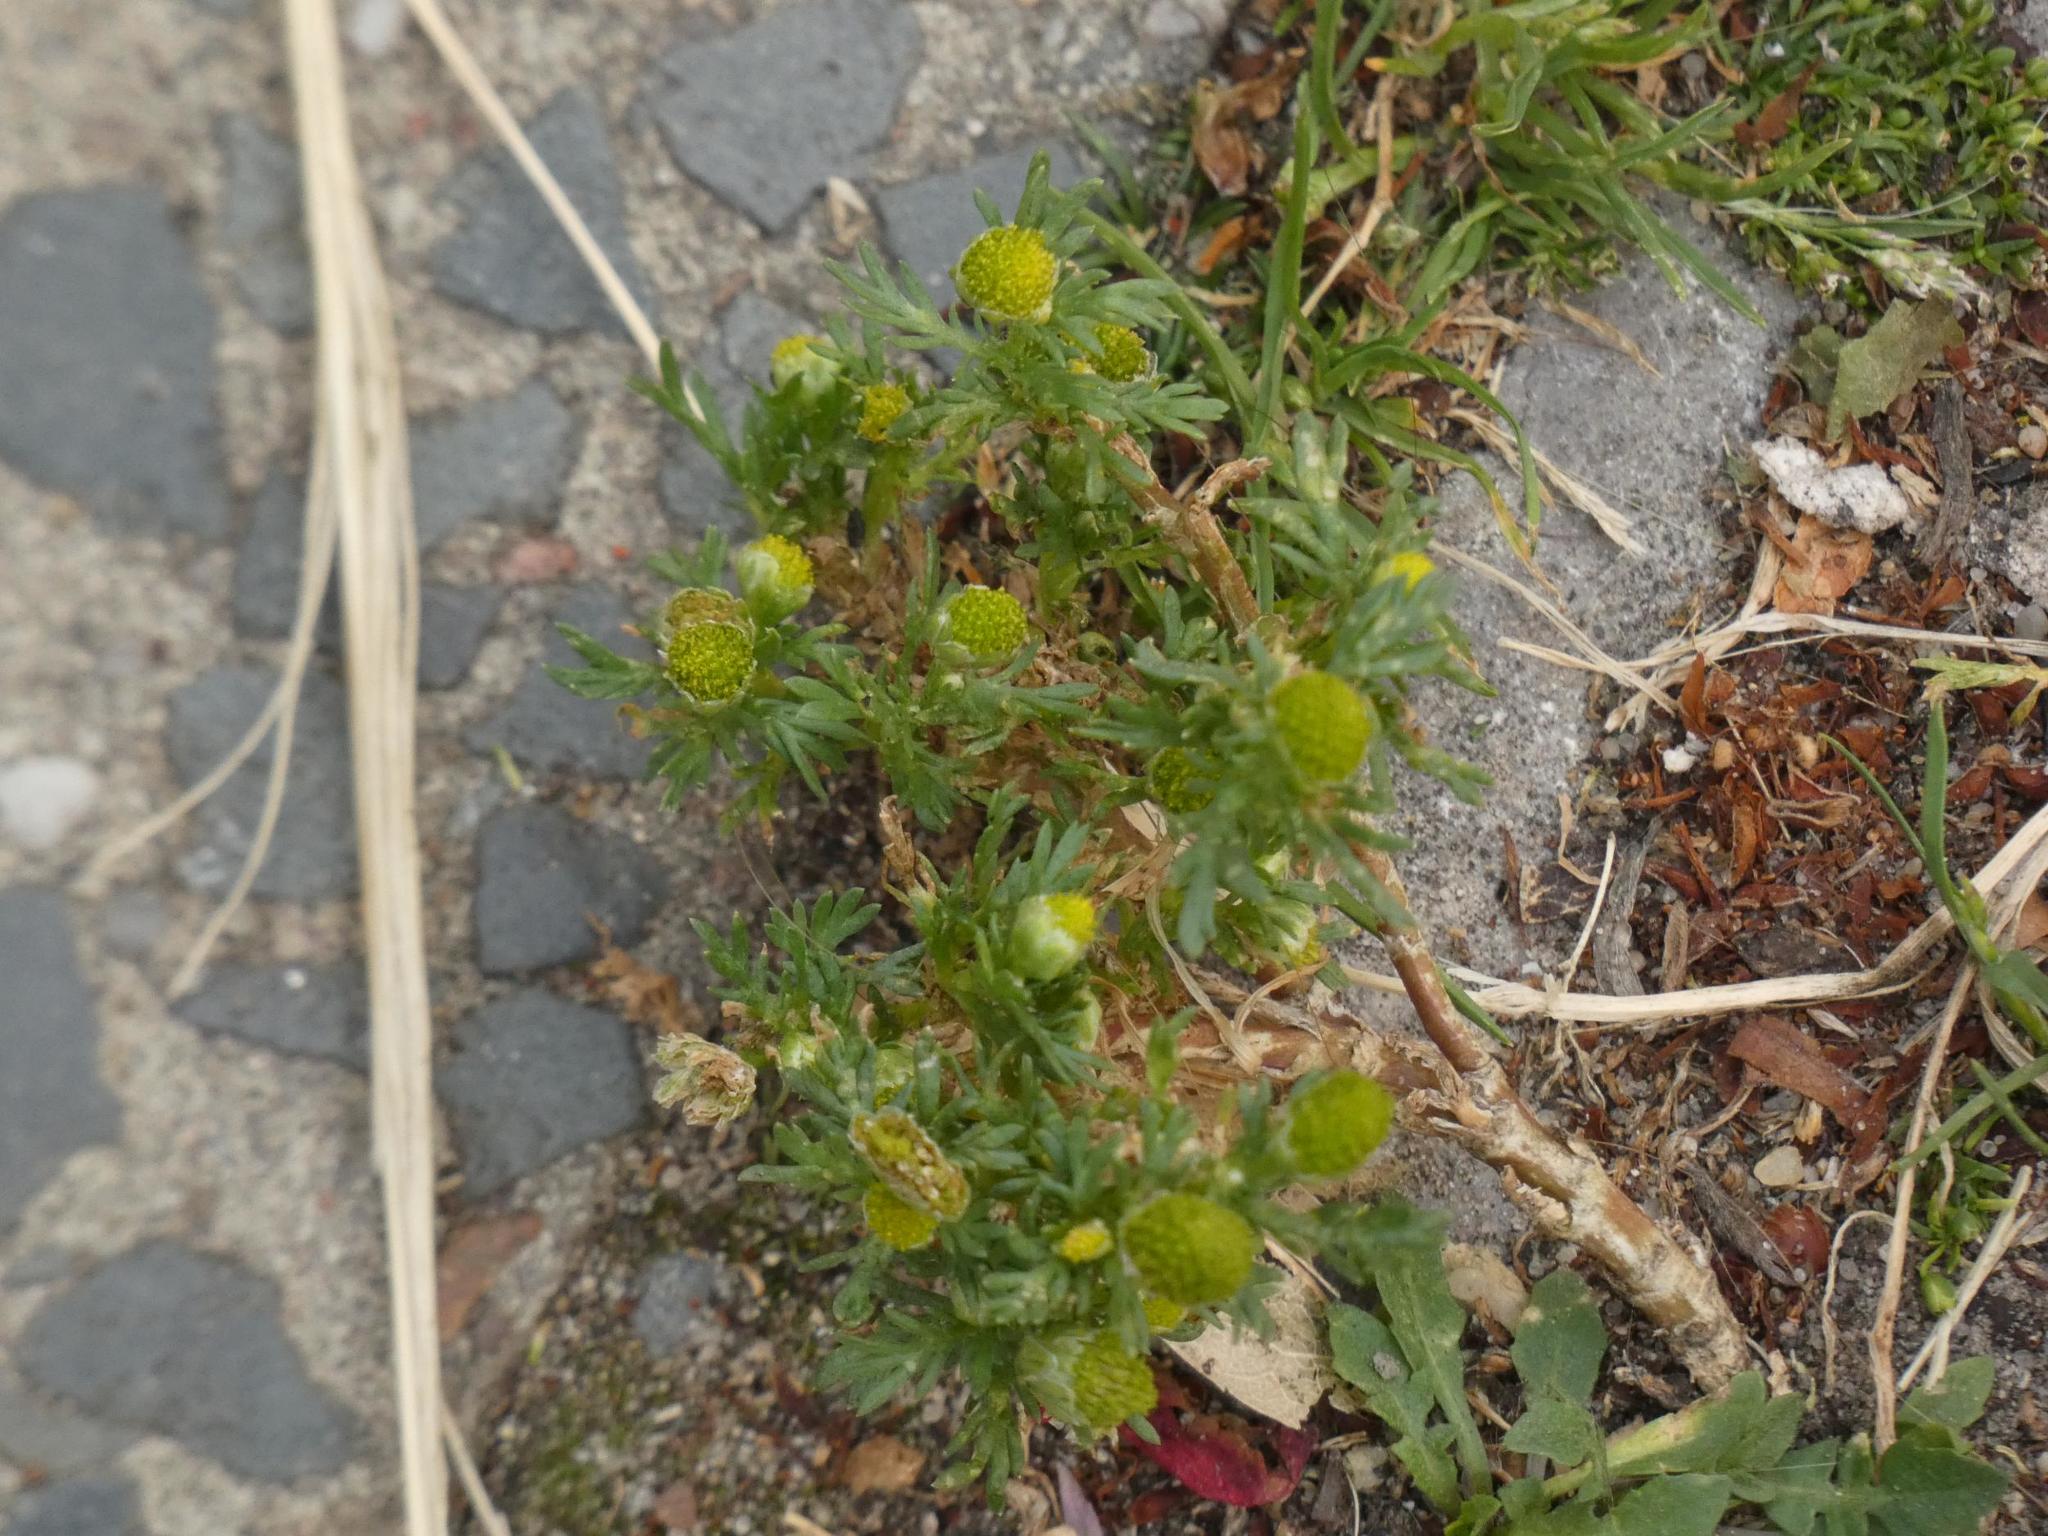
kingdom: Plantae
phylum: Tracheophyta
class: Magnoliopsida
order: Asterales
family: Asteraceae
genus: Matricaria
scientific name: Matricaria discoidea
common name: Disc mayweed
